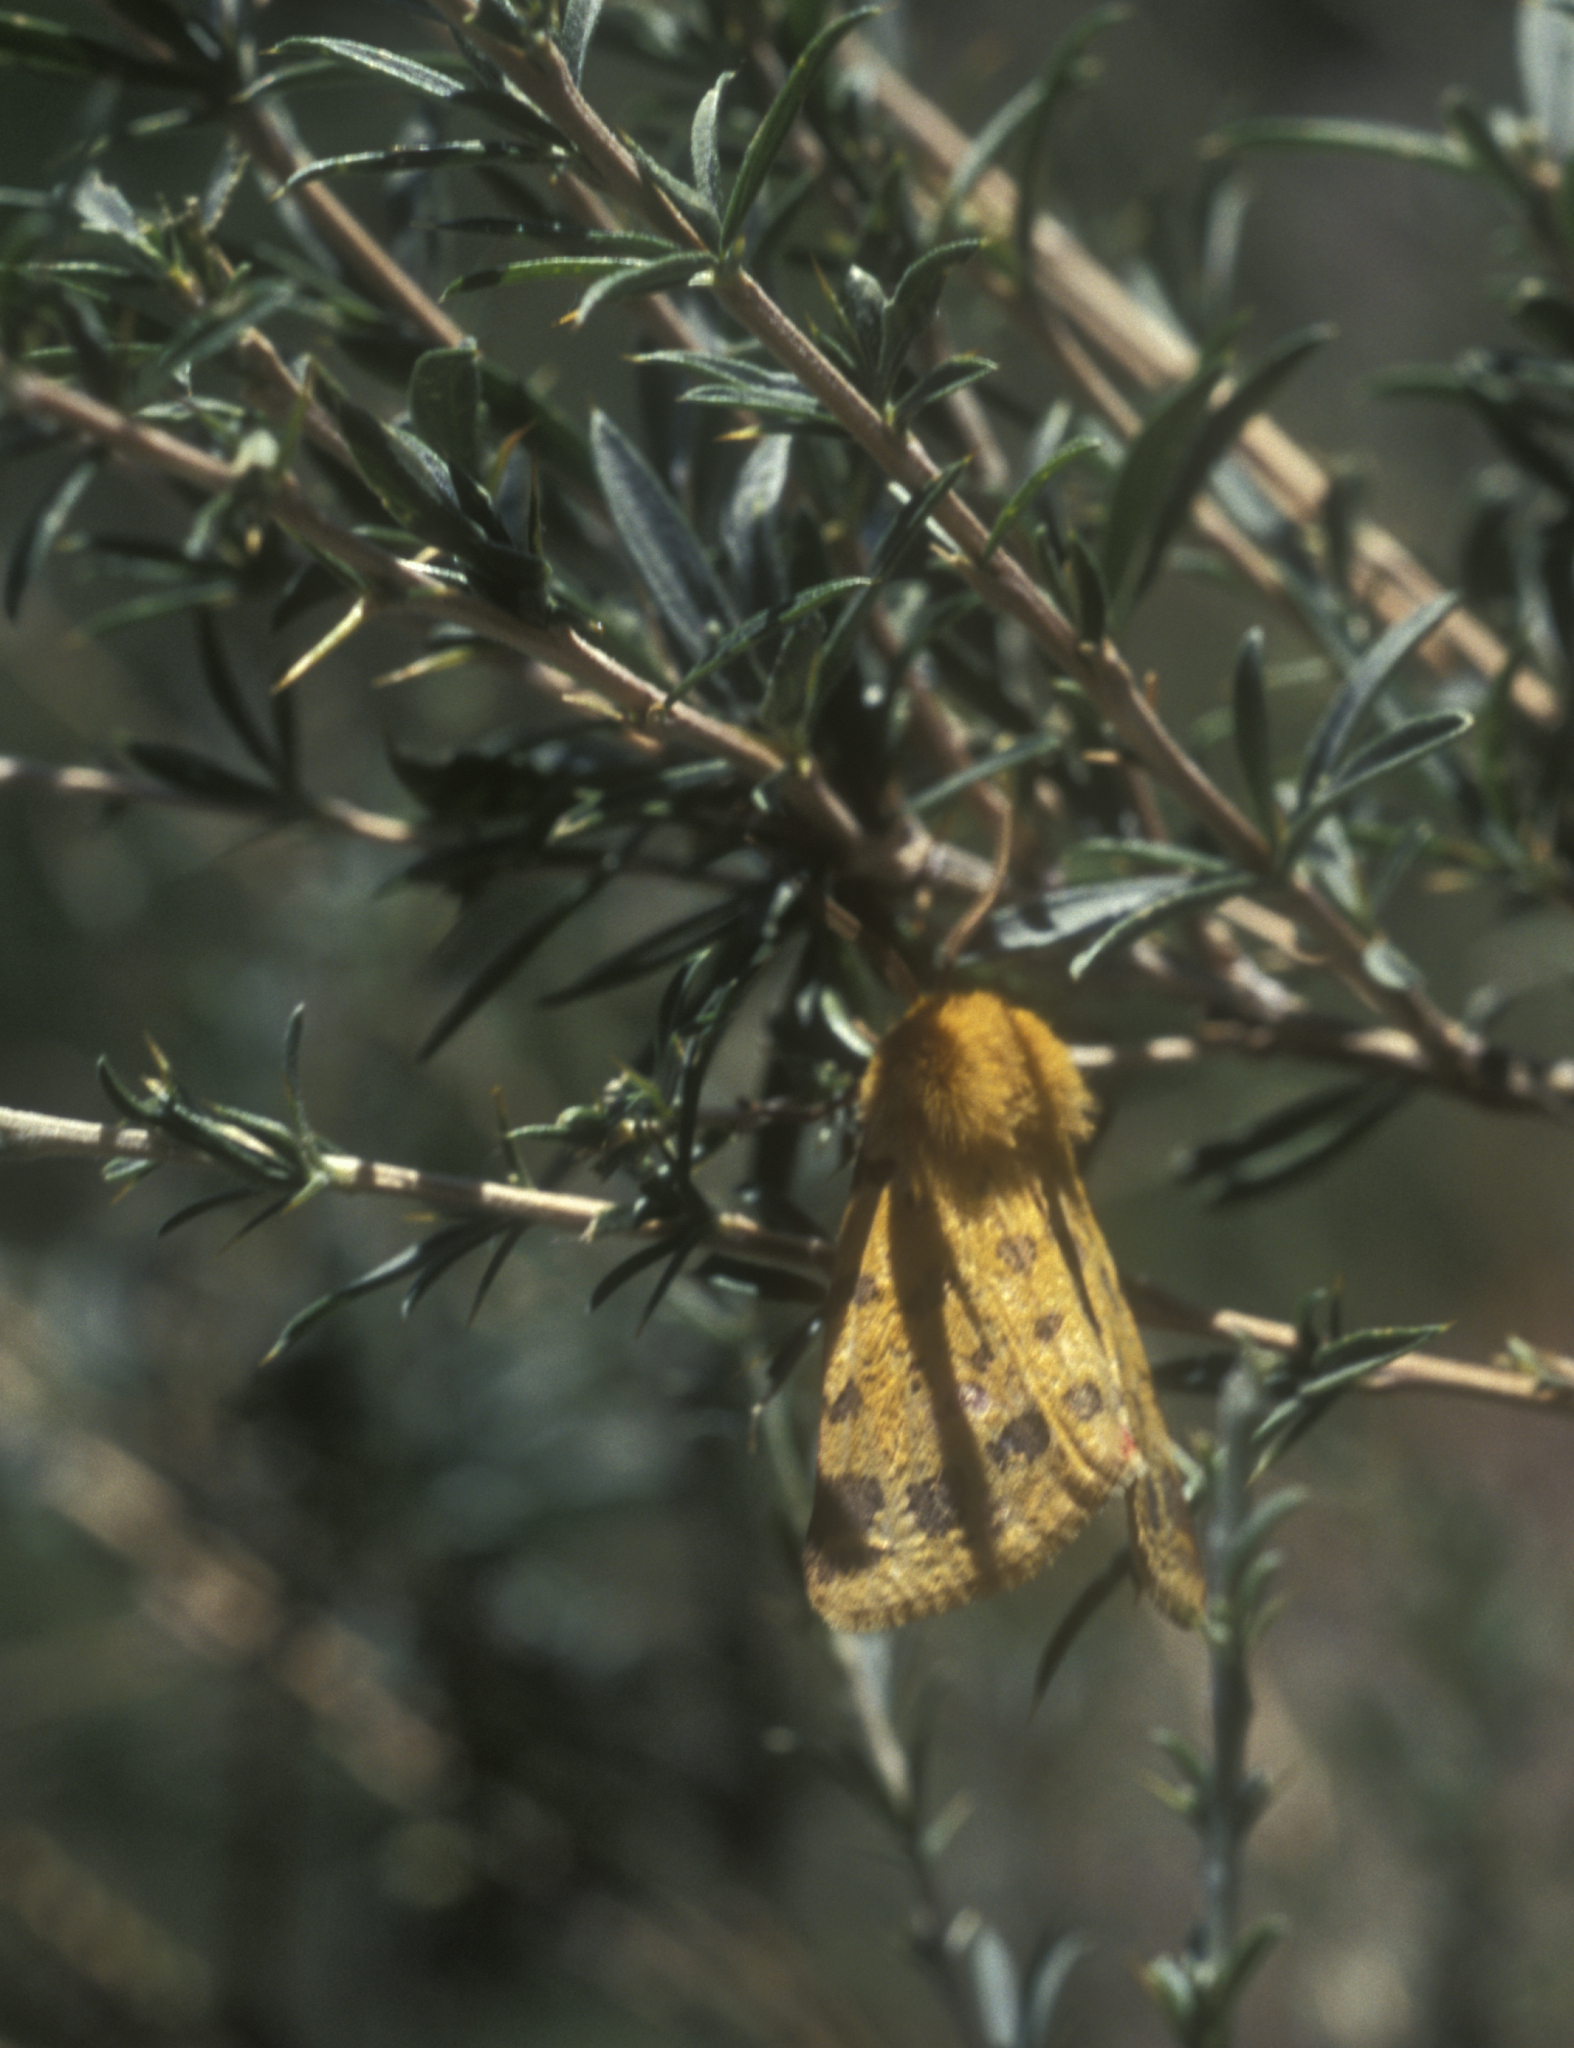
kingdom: Animalia
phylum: Arthropoda
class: Insecta
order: Lepidoptera
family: Erebidae
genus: Rhyparia
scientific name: Rhyparia purpurata
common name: Purple tiger
